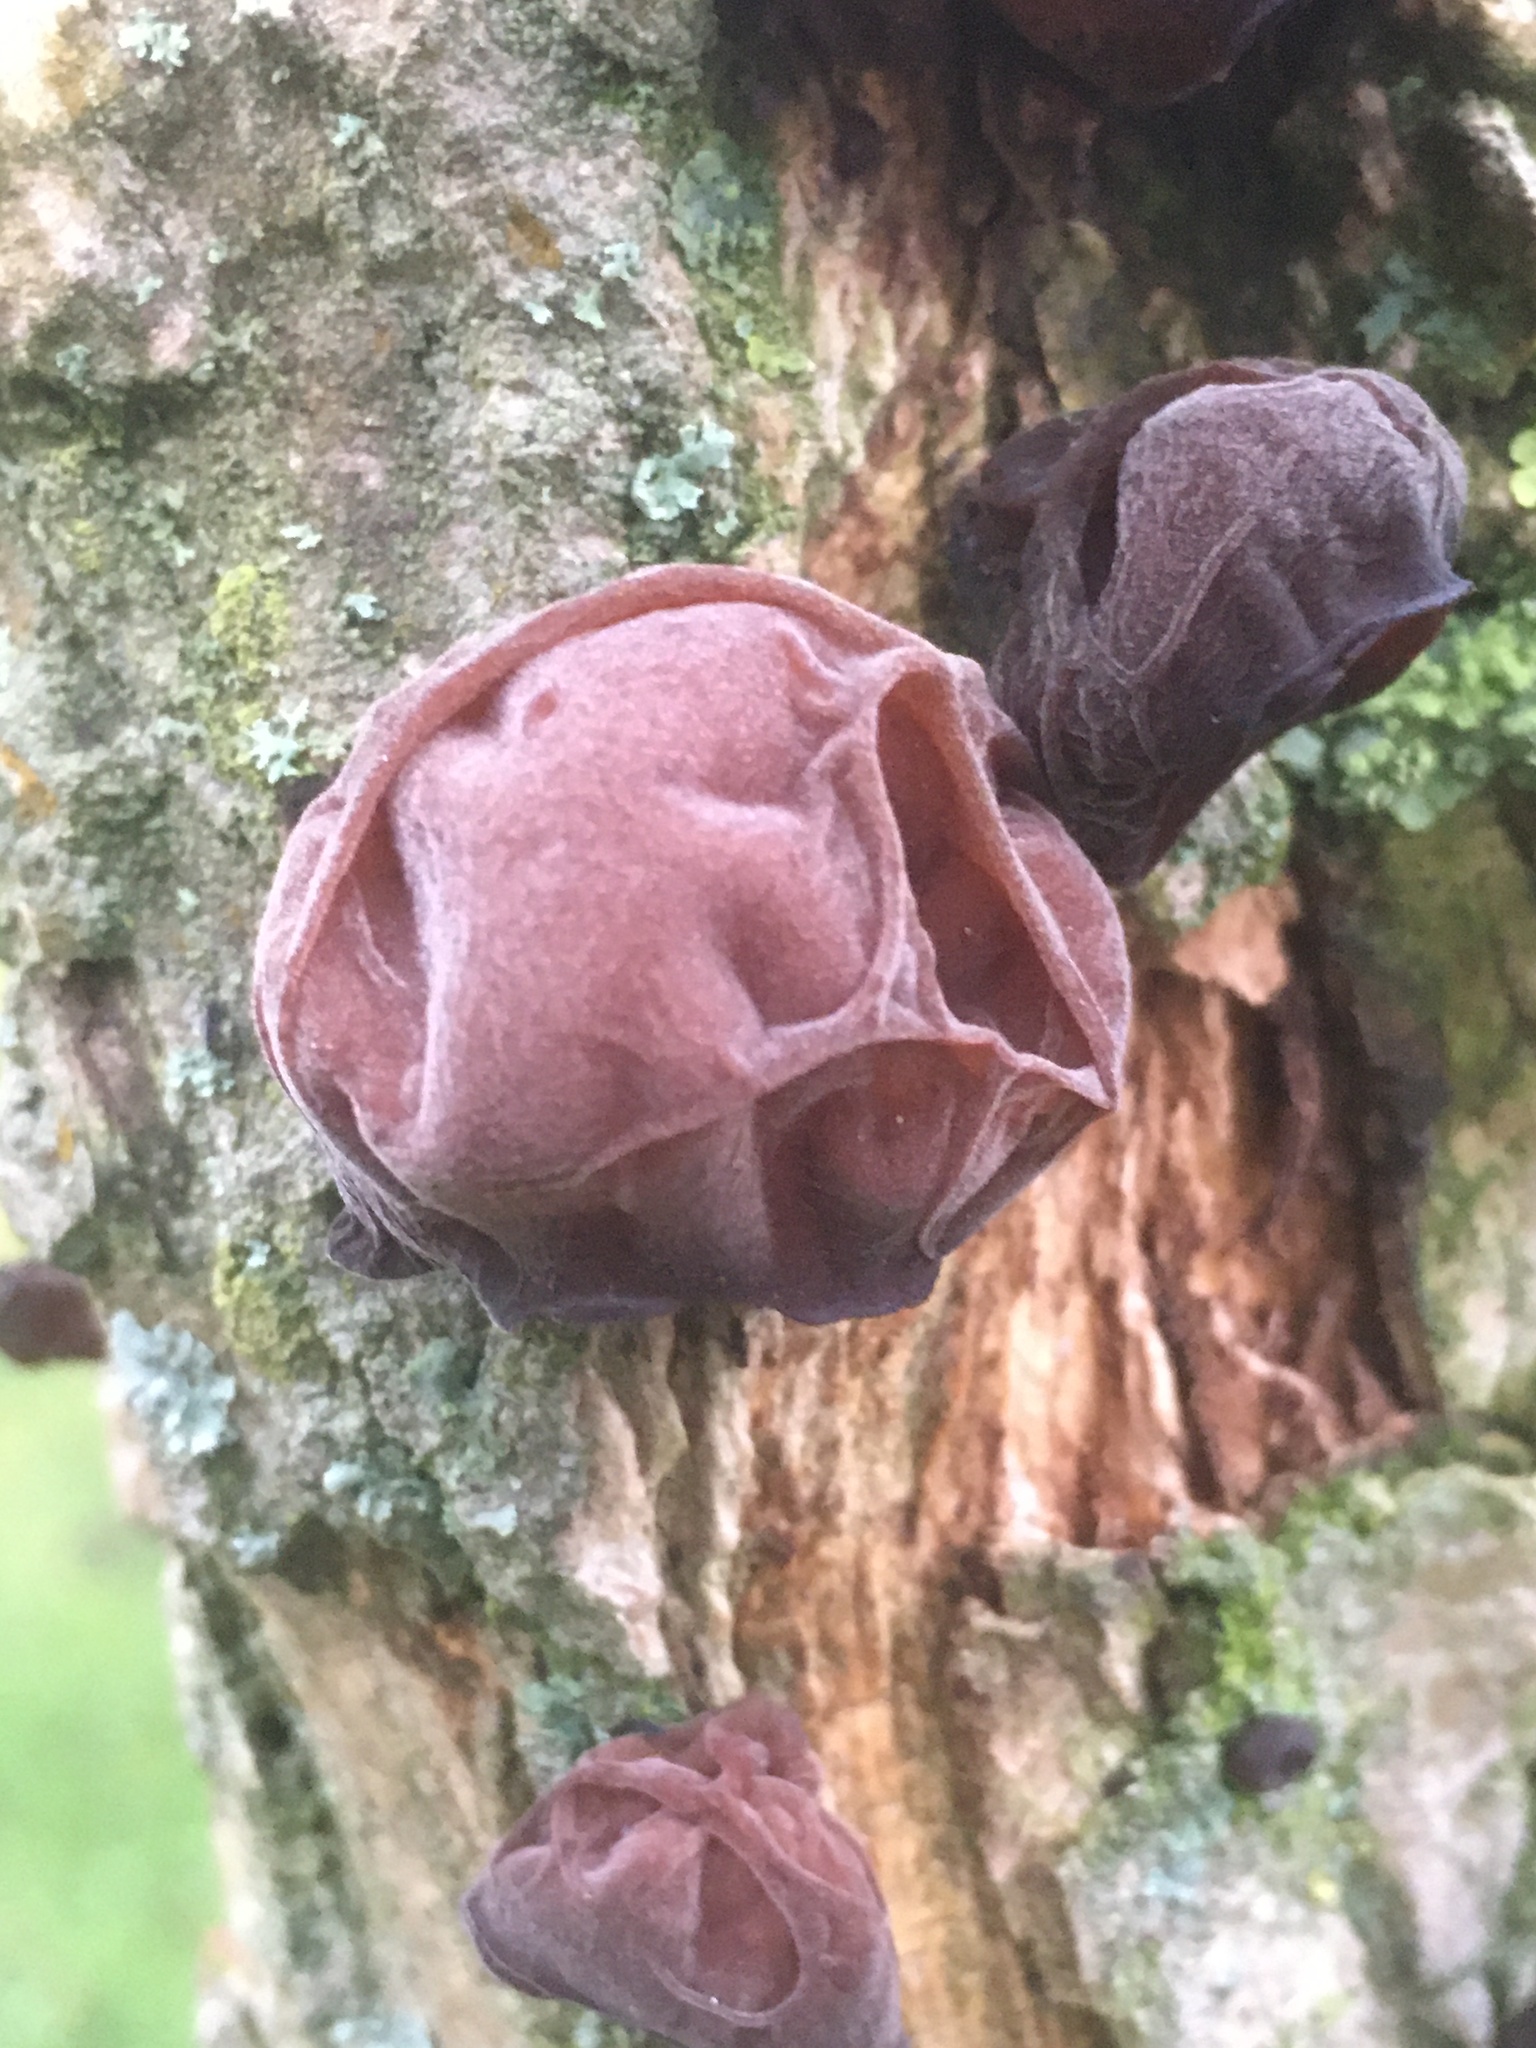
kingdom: Fungi
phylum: Basidiomycota
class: Agaricomycetes
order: Auriculariales
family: Auriculariaceae
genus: Auricularia
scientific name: Auricularia auricula-judae
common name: Jelly ear
